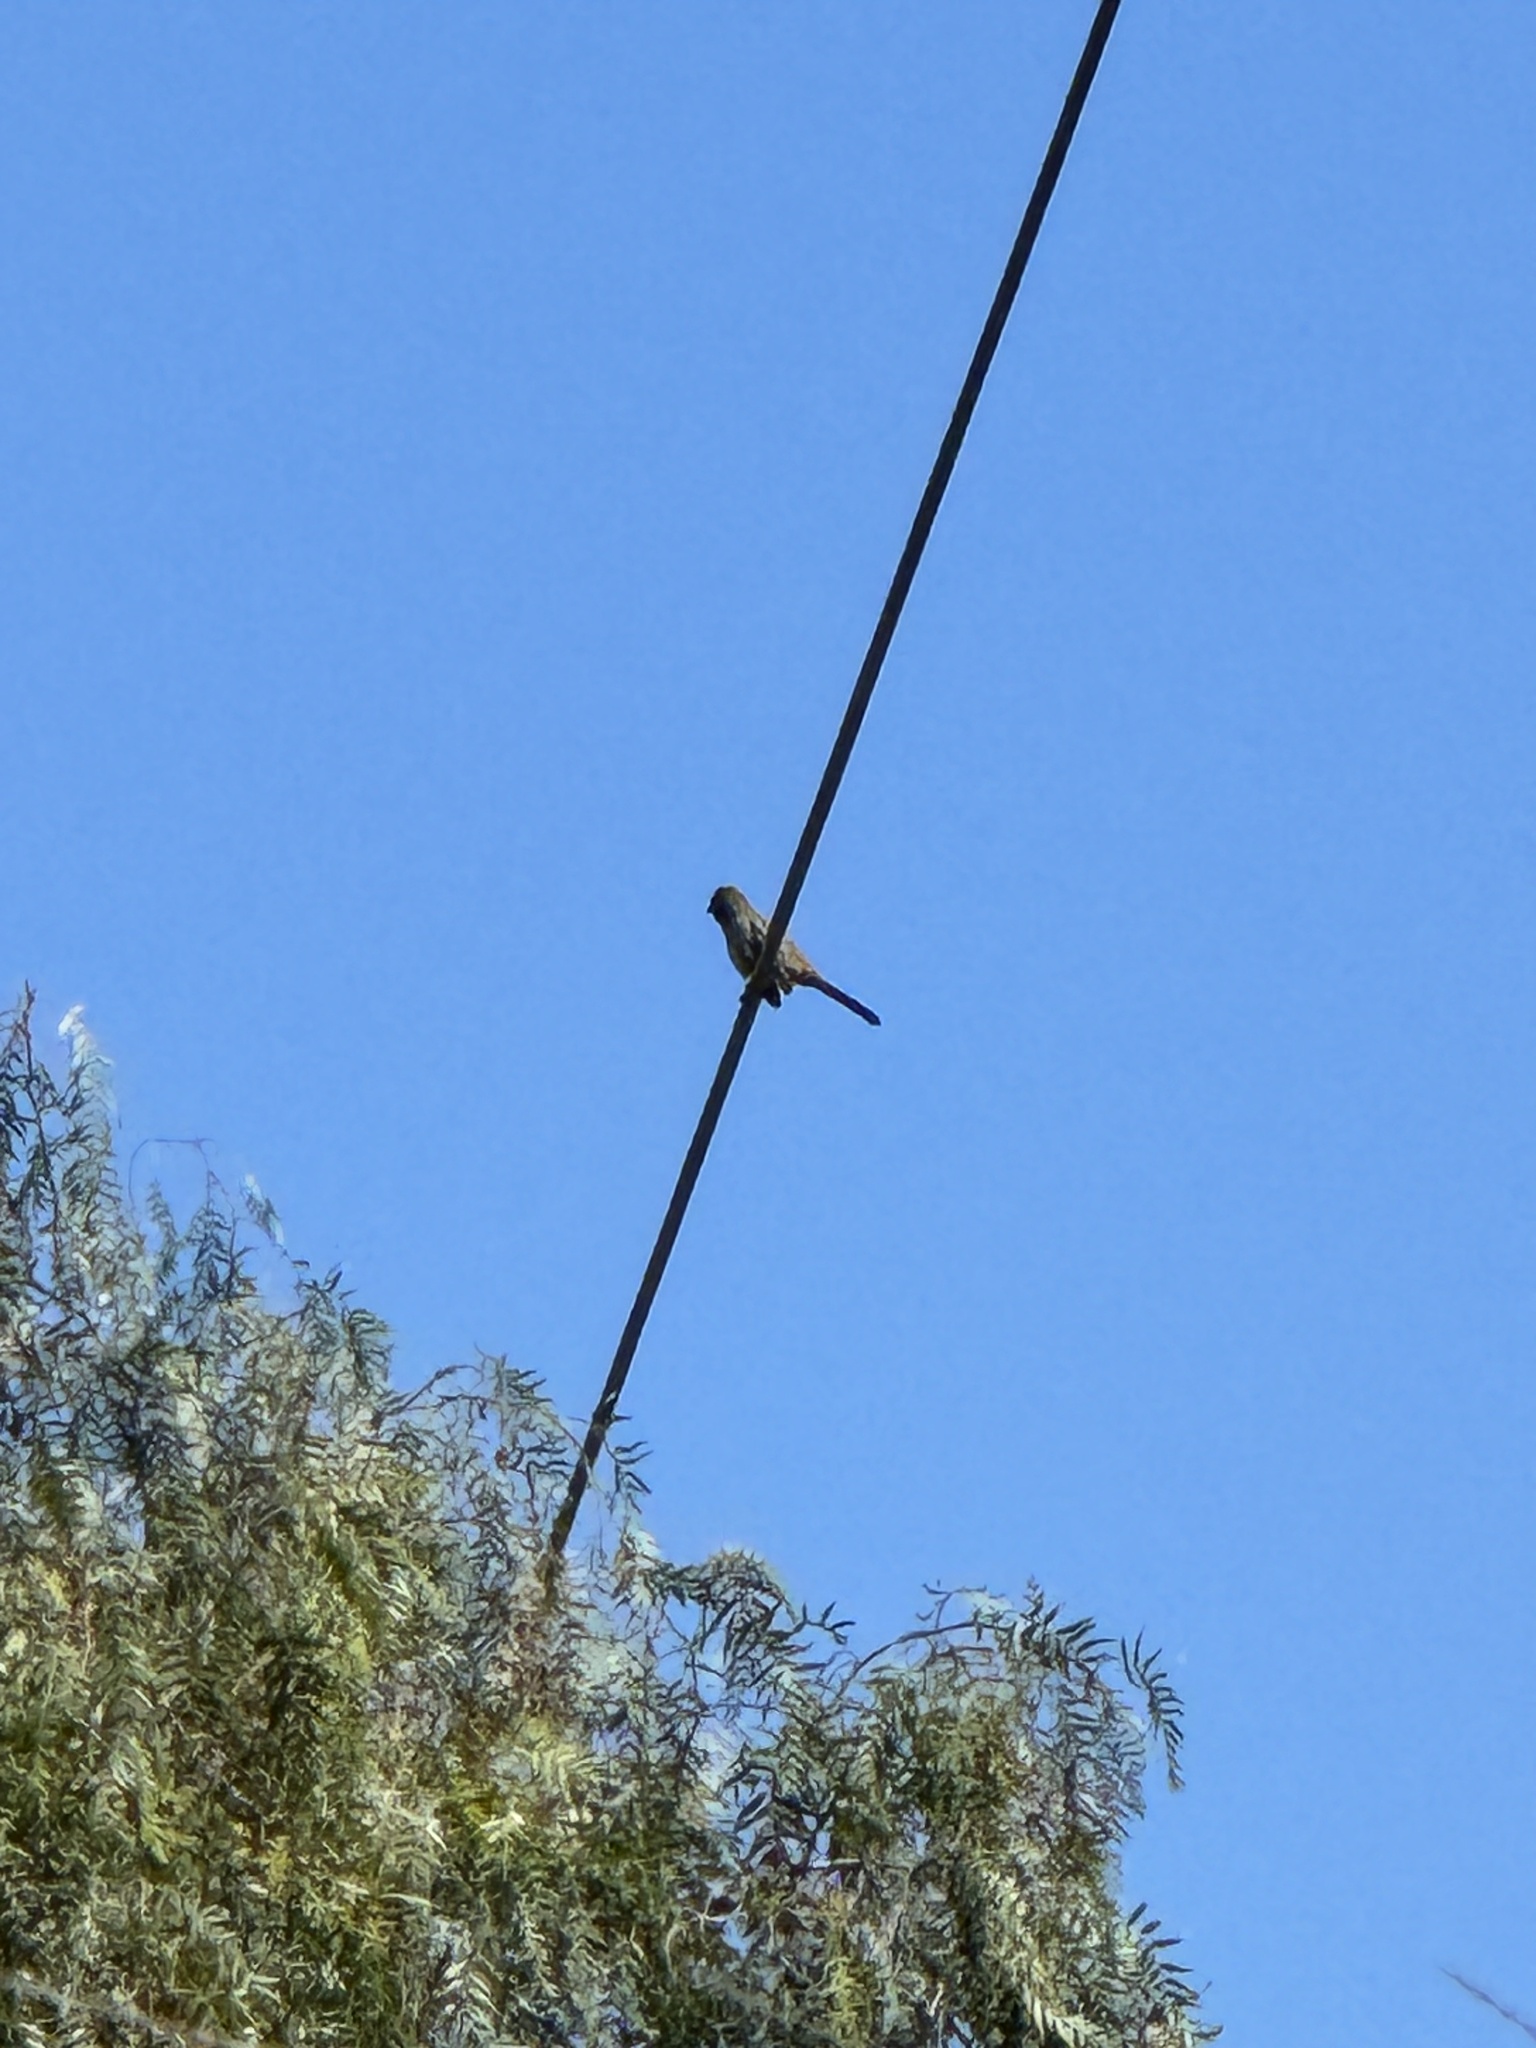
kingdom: Animalia
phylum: Chordata
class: Aves
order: Passeriformes
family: Passerellidae
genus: Melozone
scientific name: Melozone crissalis
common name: California towhee
